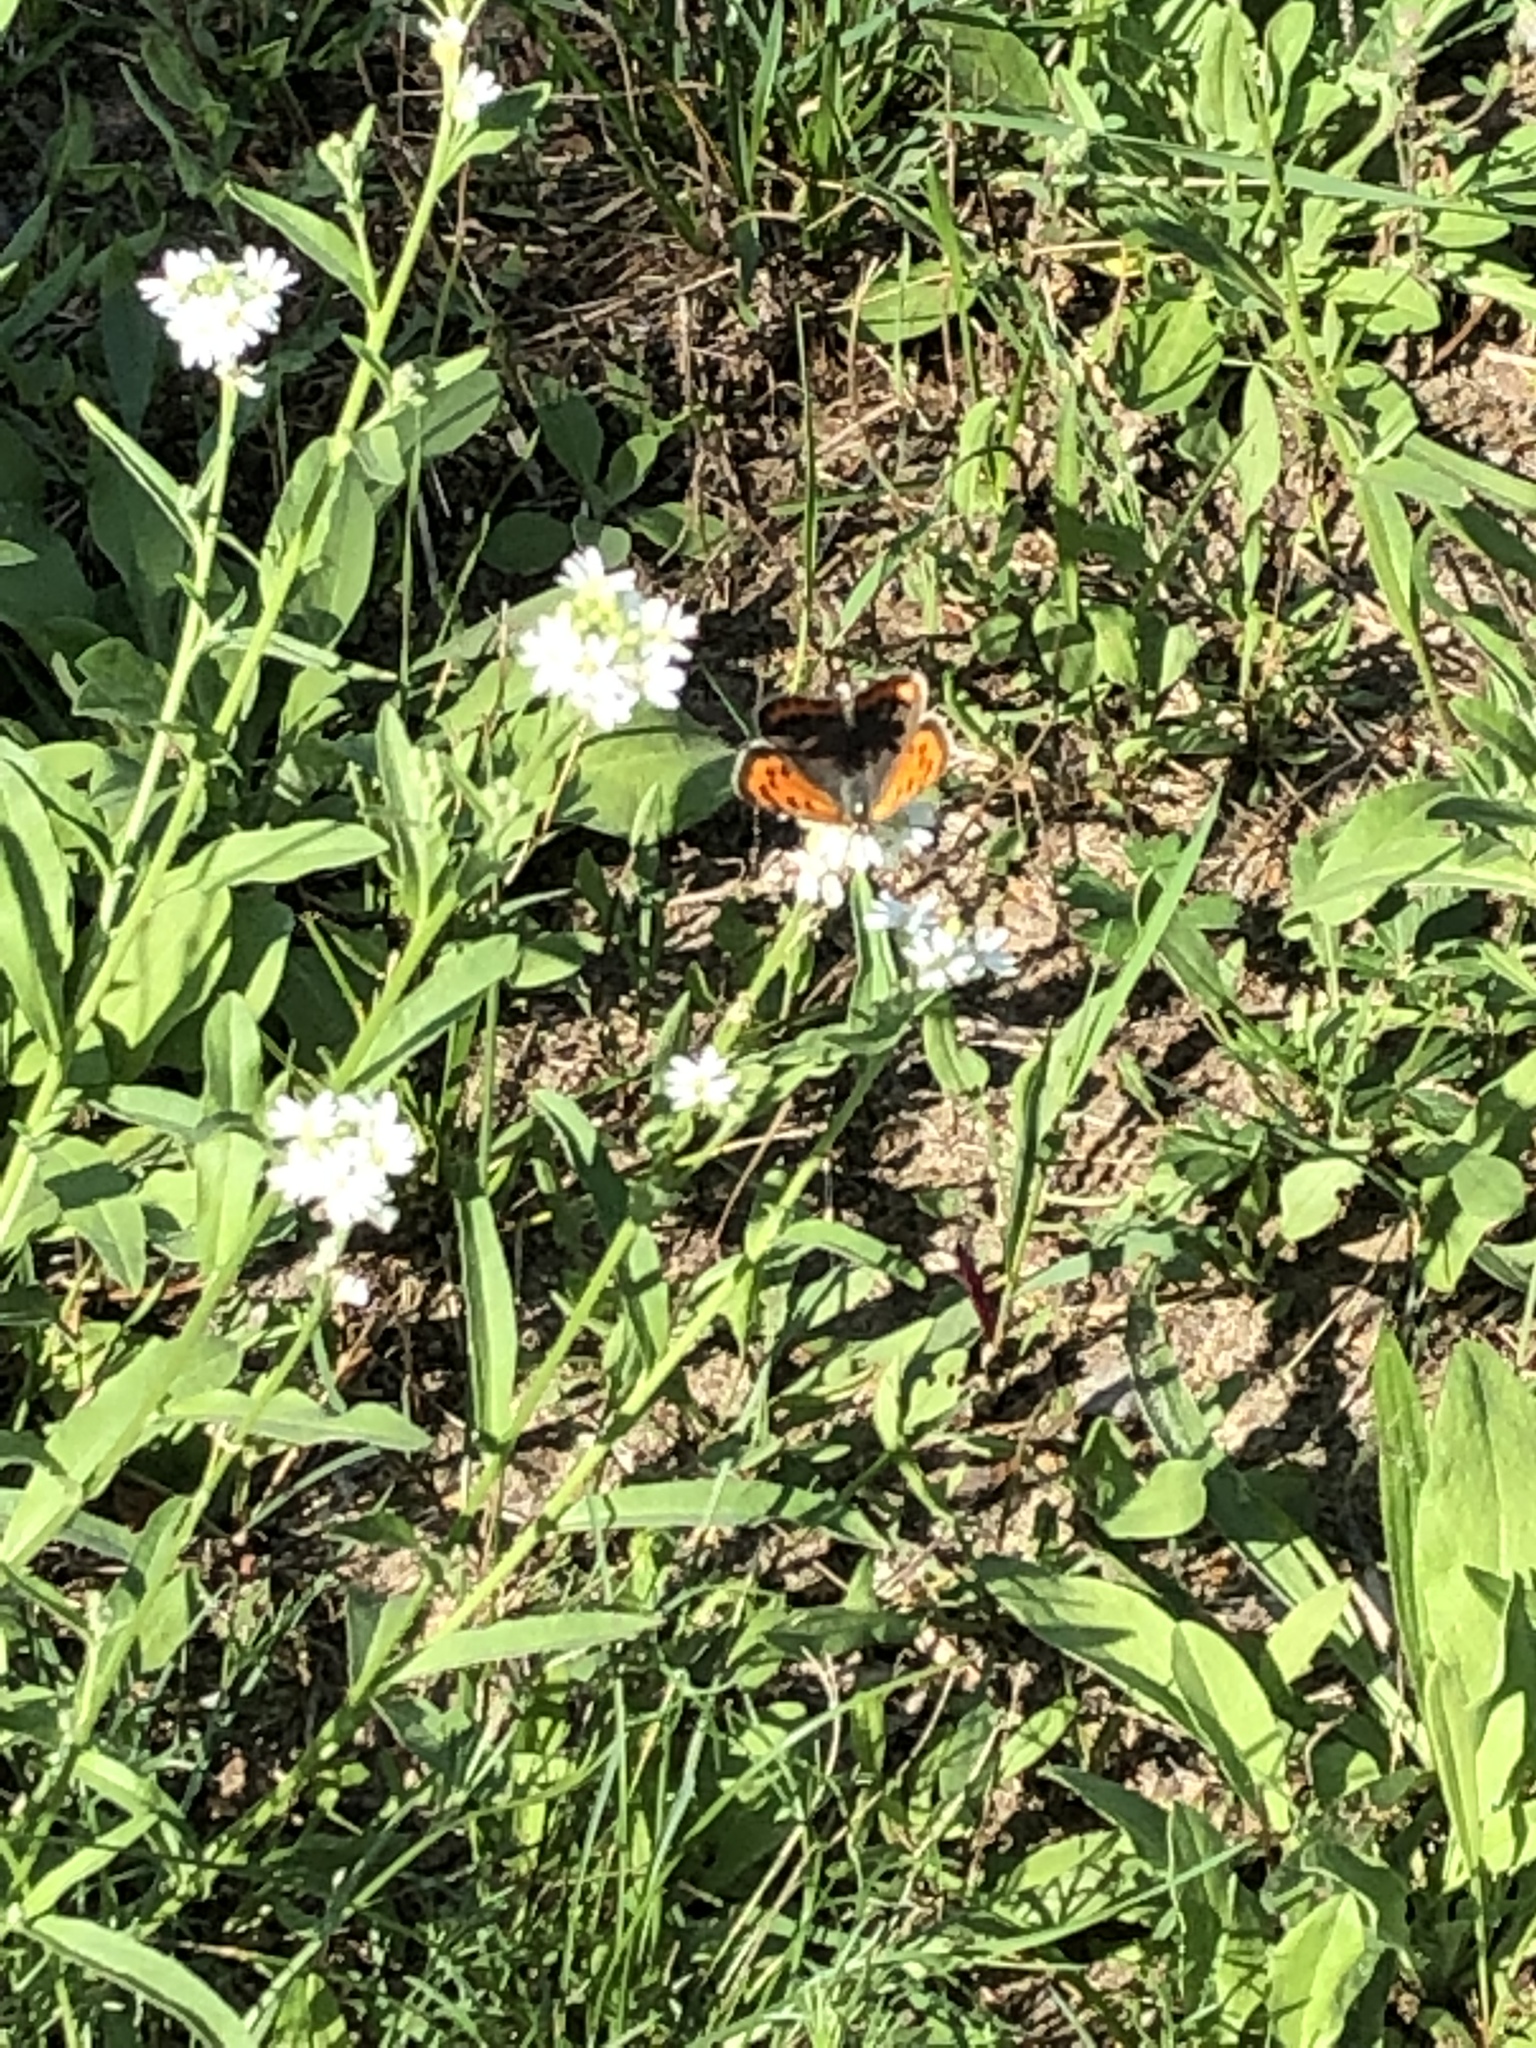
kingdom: Animalia
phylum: Arthropoda
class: Insecta
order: Lepidoptera
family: Lycaenidae
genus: Lycaena
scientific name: Lycaena phlaeas
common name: Small copper
